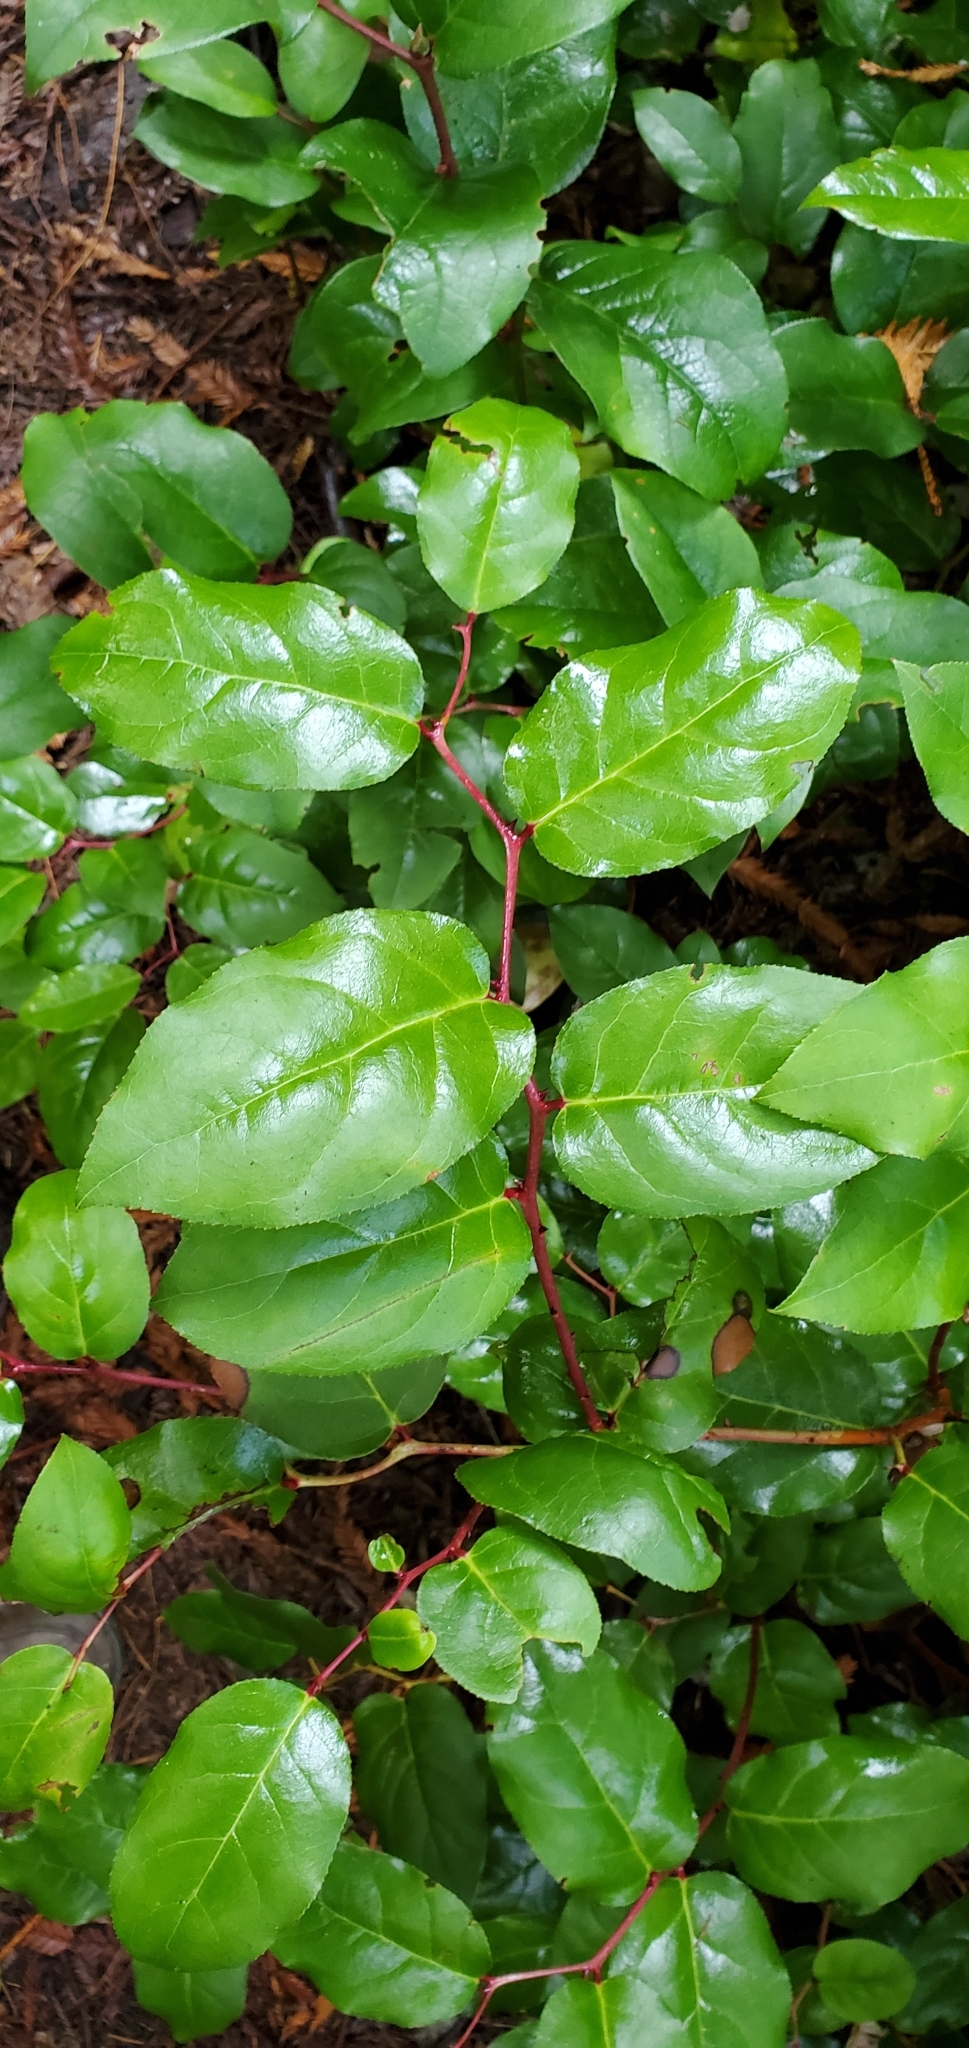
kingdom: Plantae
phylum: Tracheophyta
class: Magnoliopsida
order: Ericales
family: Ericaceae
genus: Gaultheria
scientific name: Gaultheria shallon
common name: Shallon
